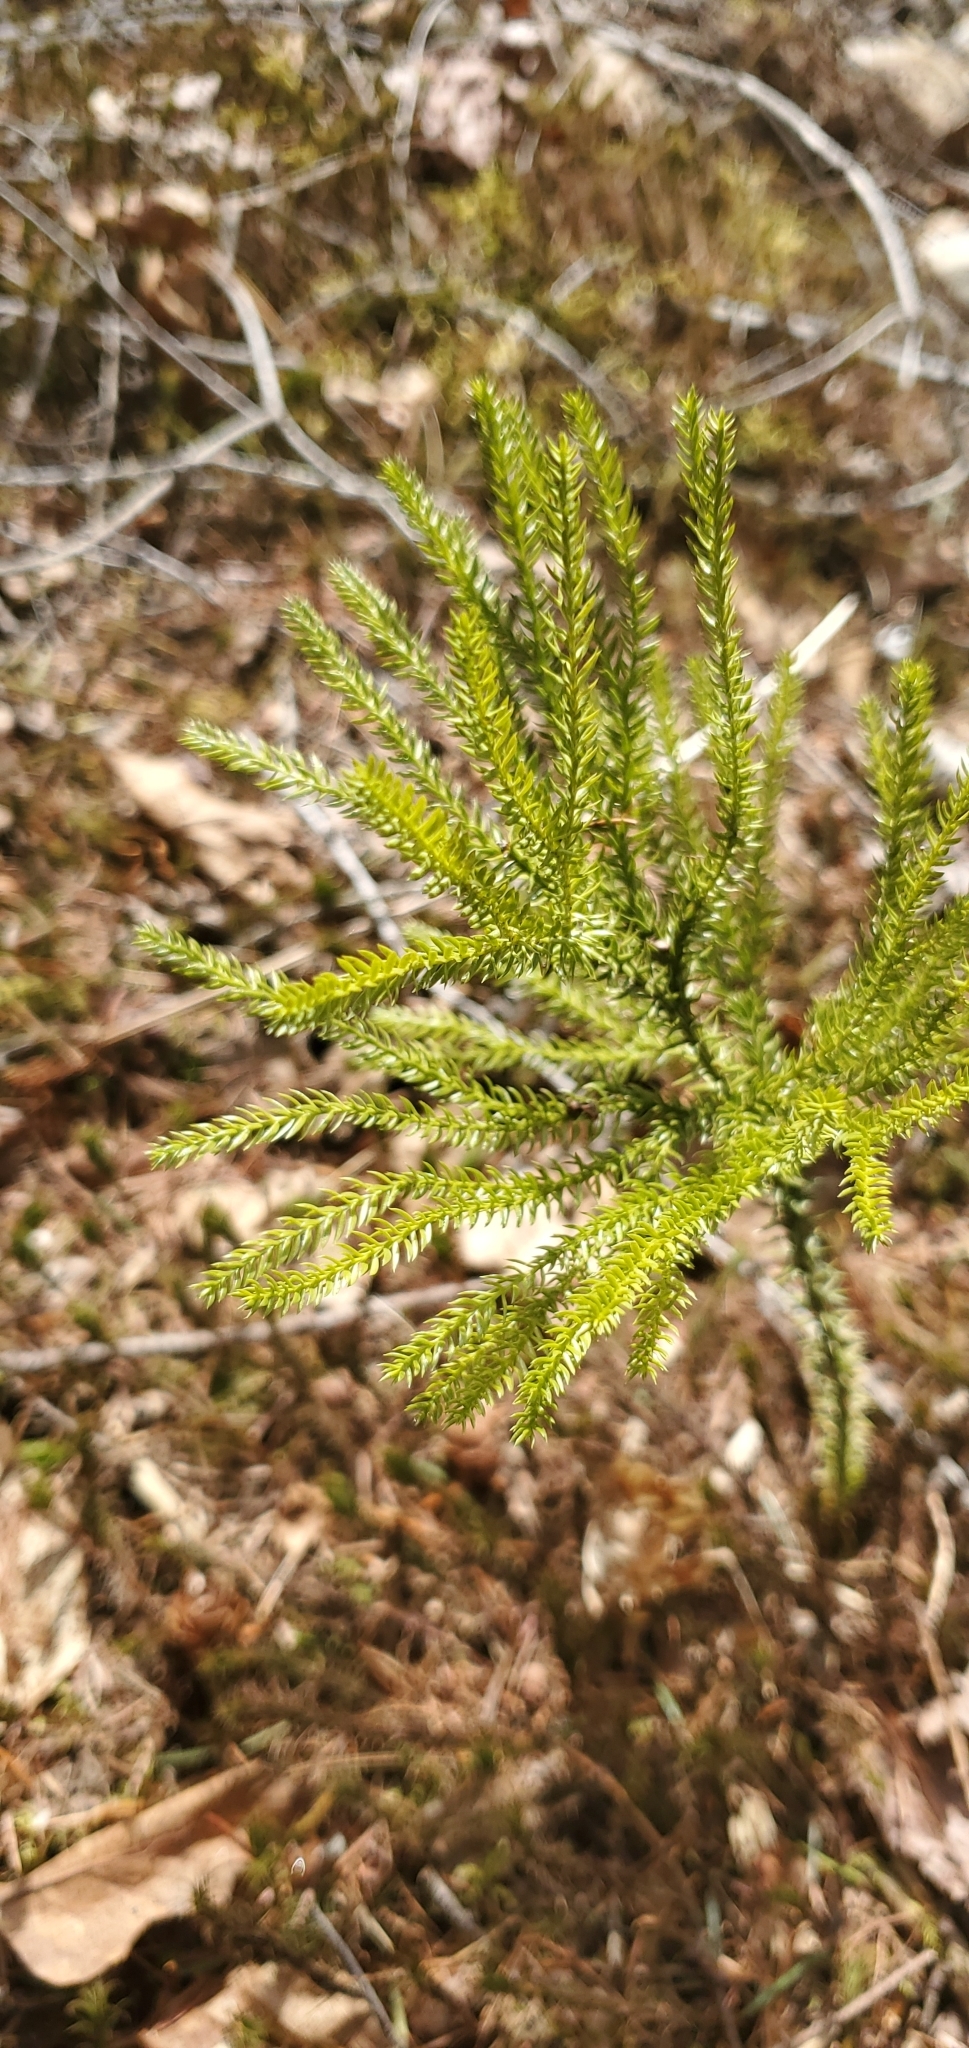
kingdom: Plantae
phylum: Tracheophyta
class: Lycopodiopsida
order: Lycopodiales
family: Lycopodiaceae
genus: Dendrolycopodium
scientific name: Dendrolycopodium dendroideum
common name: Northern tree-clubmoss
